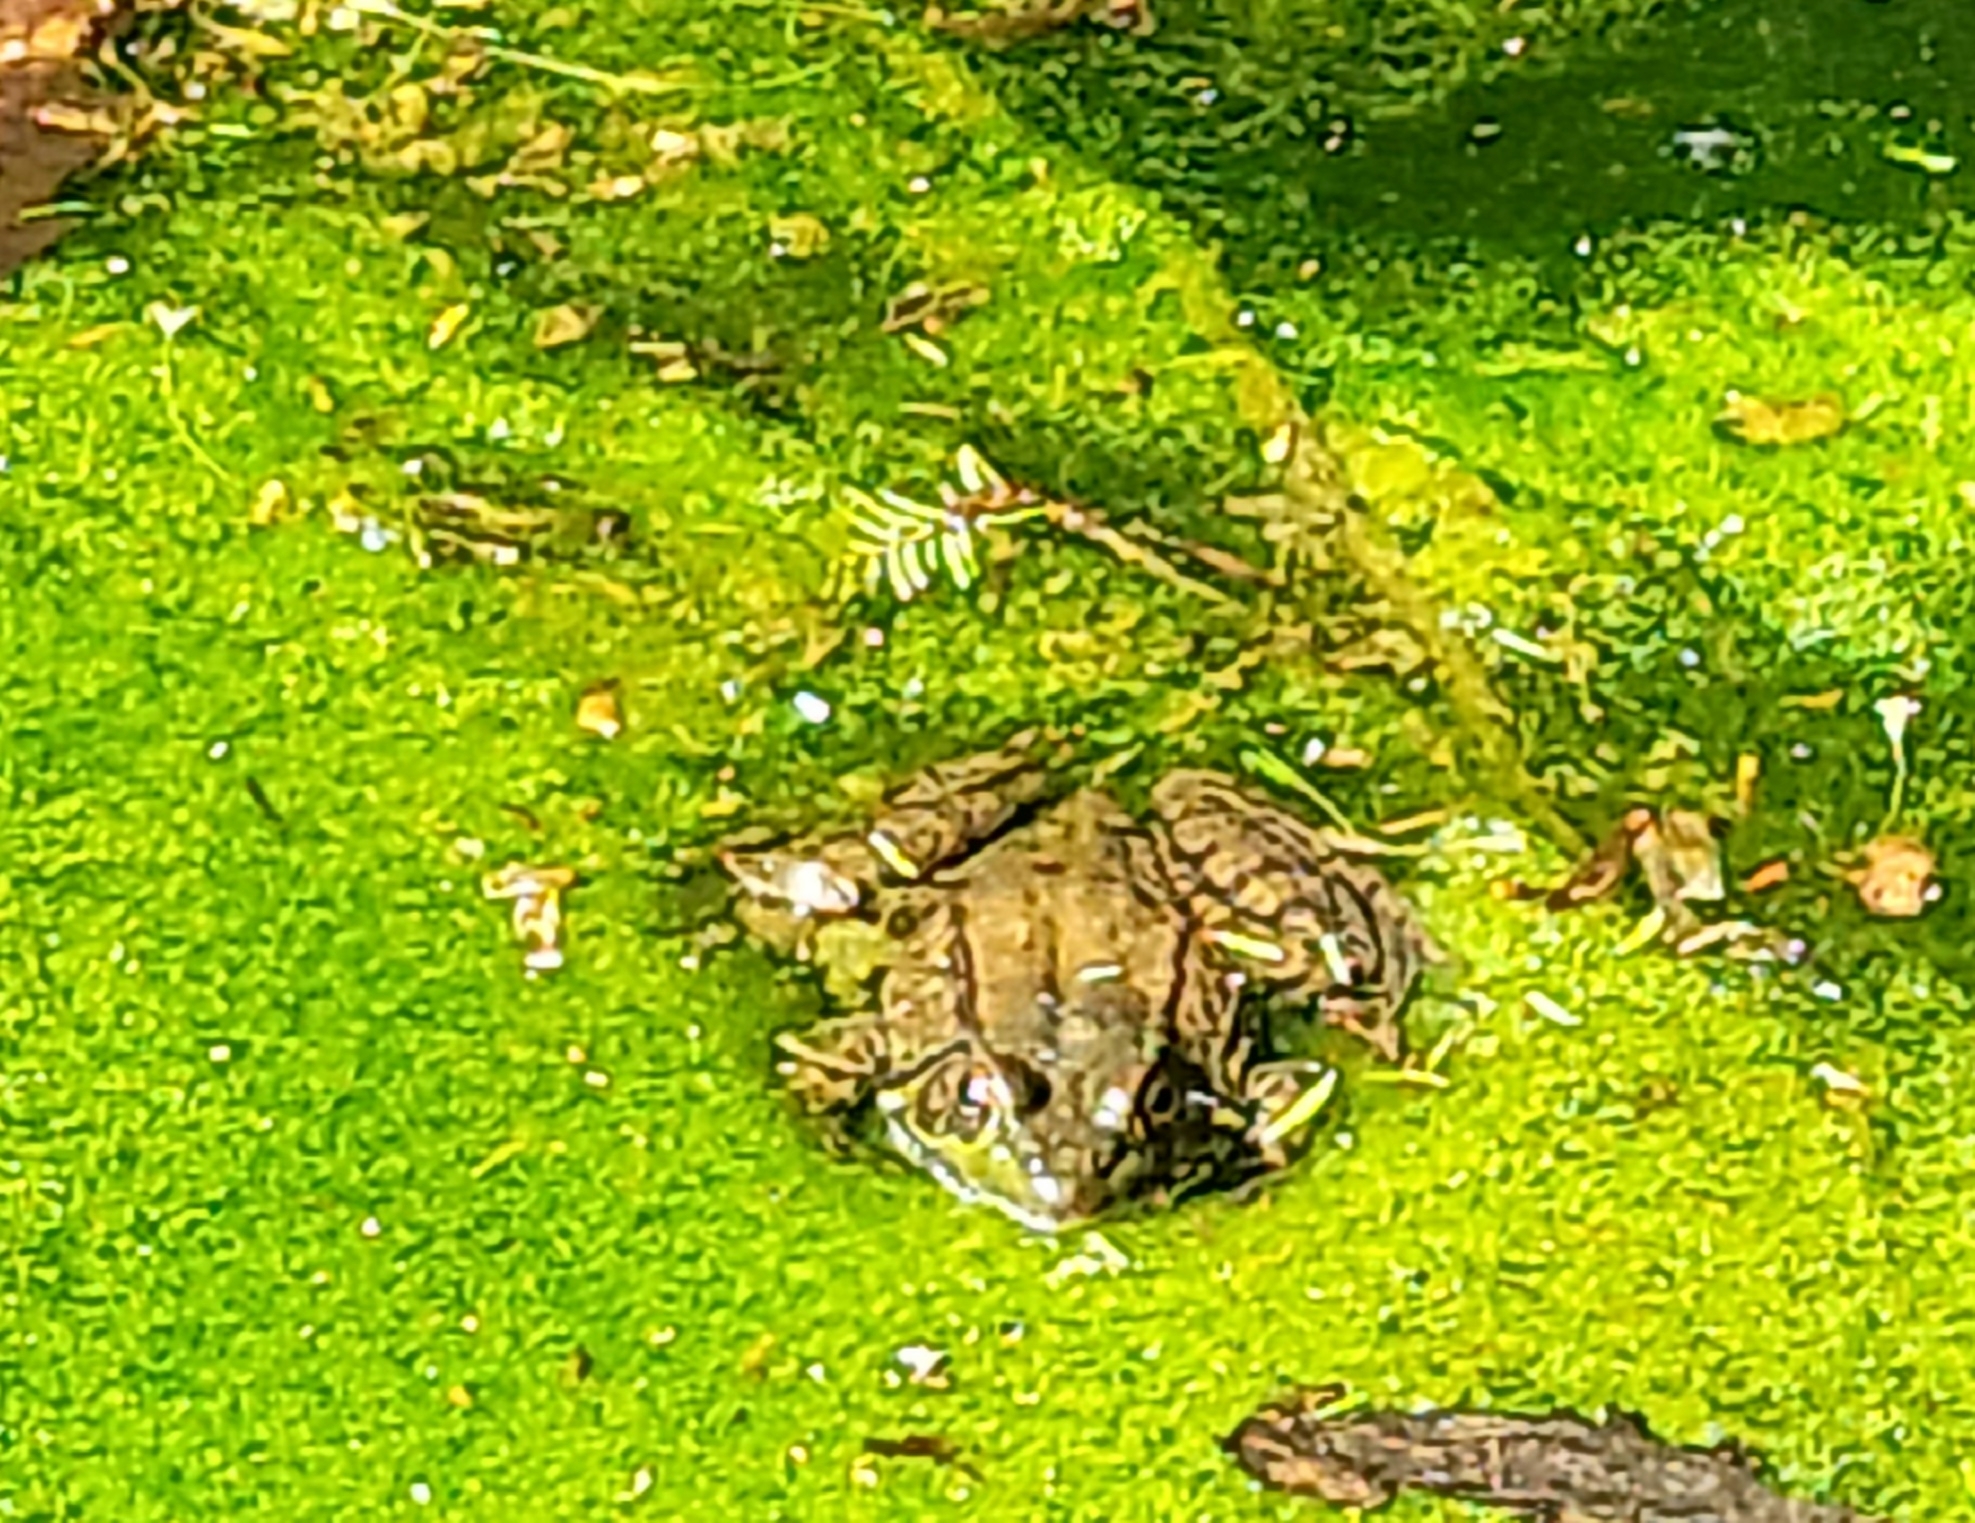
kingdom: Animalia
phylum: Chordata
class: Amphibia
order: Anura
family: Ranidae
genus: Lithobates
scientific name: Lithobates clamitans
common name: Green frog
